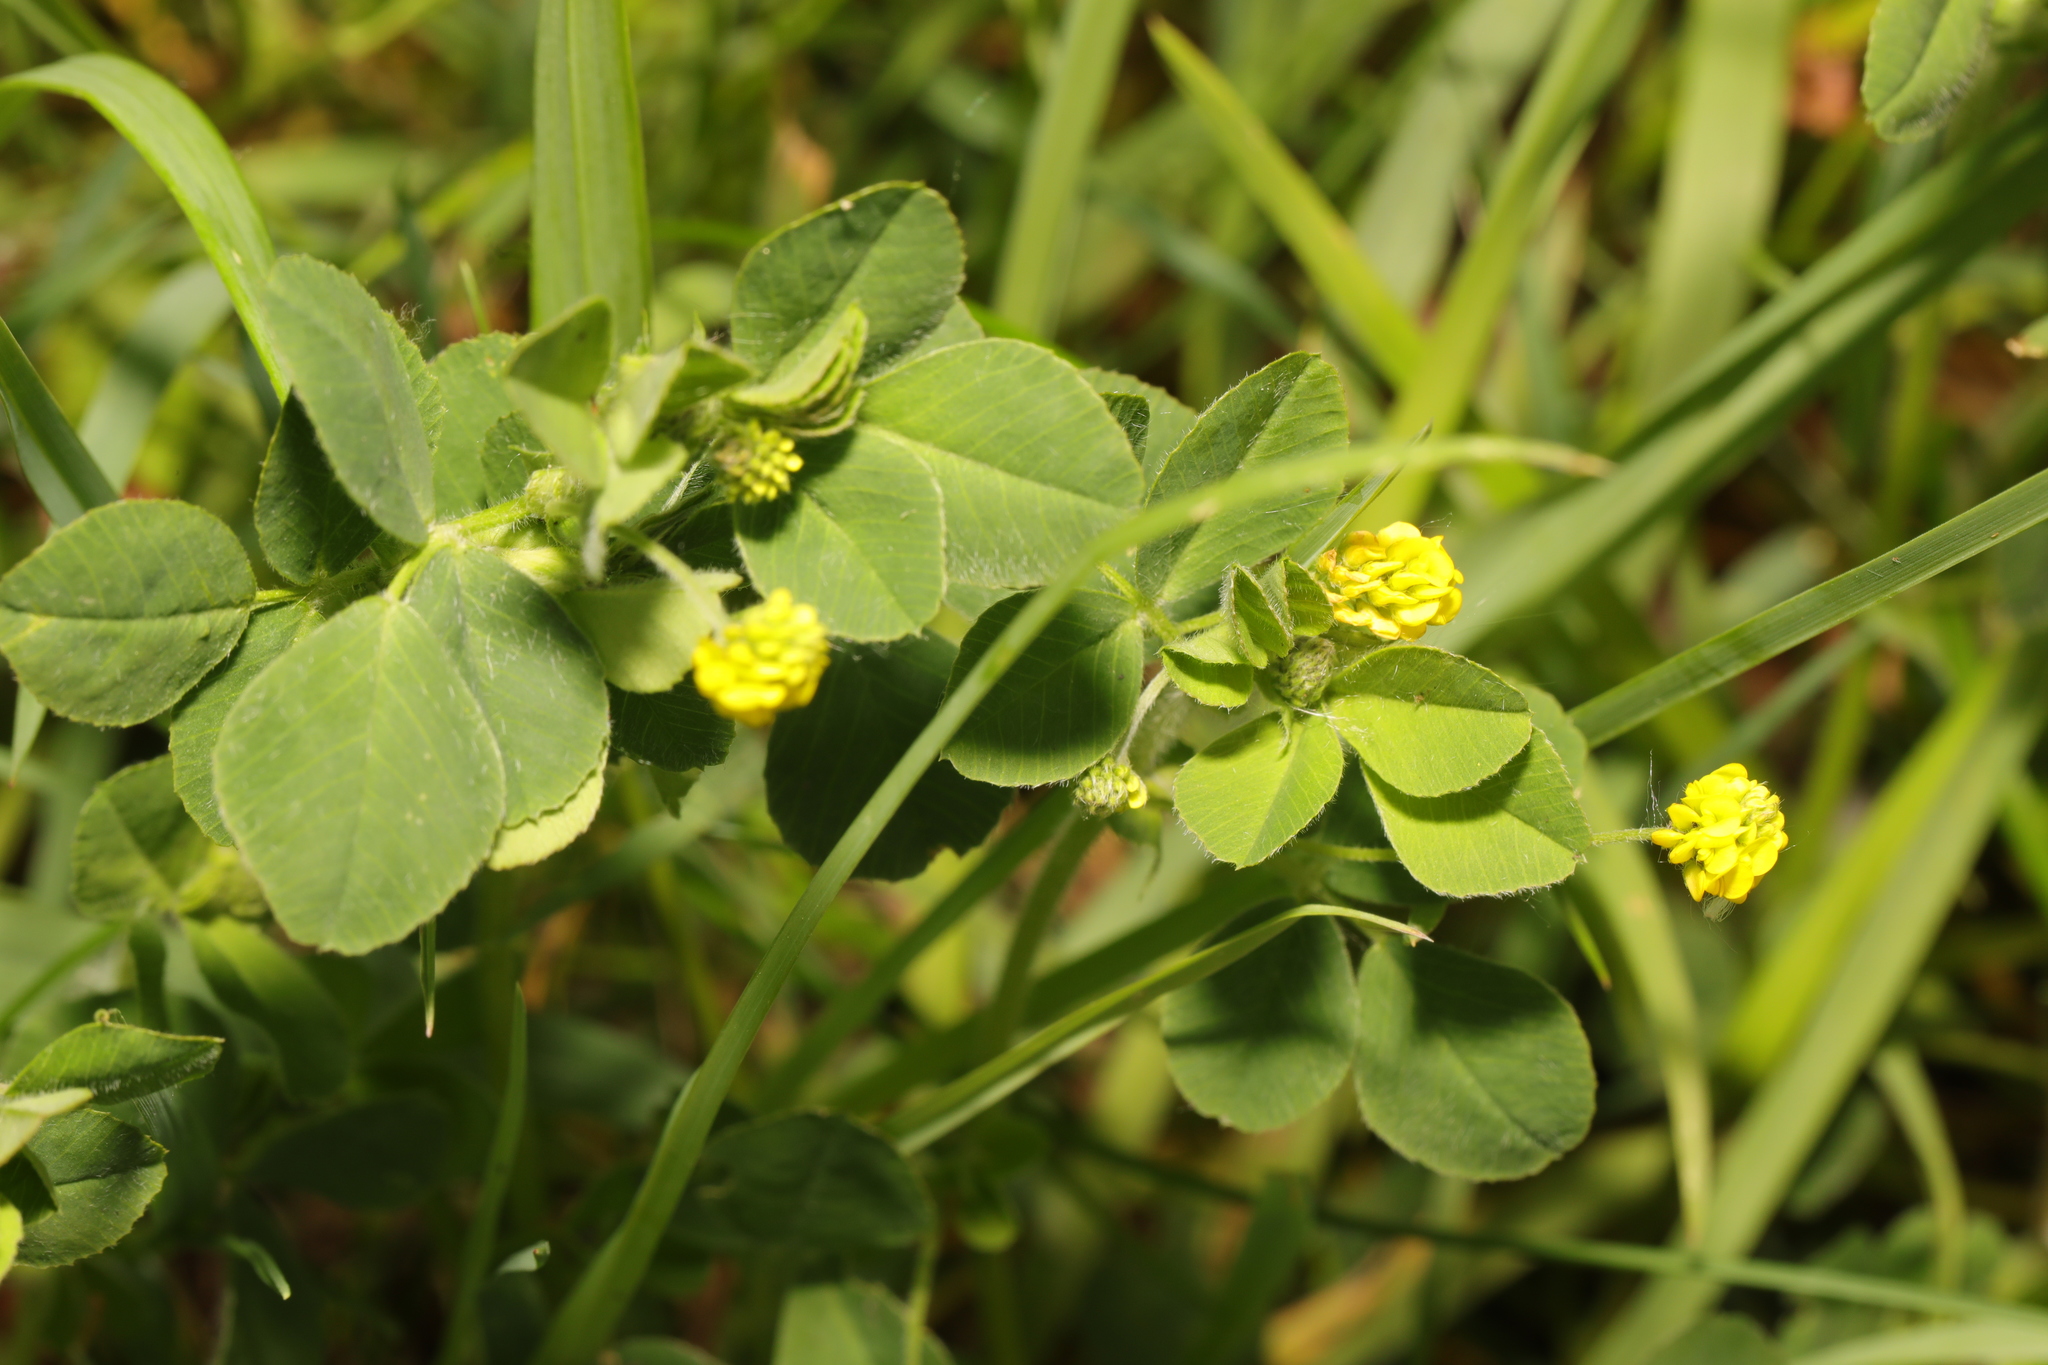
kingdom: Plantae
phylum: Tracheophyta
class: Magnoliopsida
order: Fabales
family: Fabaceae
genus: Medicago
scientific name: Medicago lupulina
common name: Black medick
